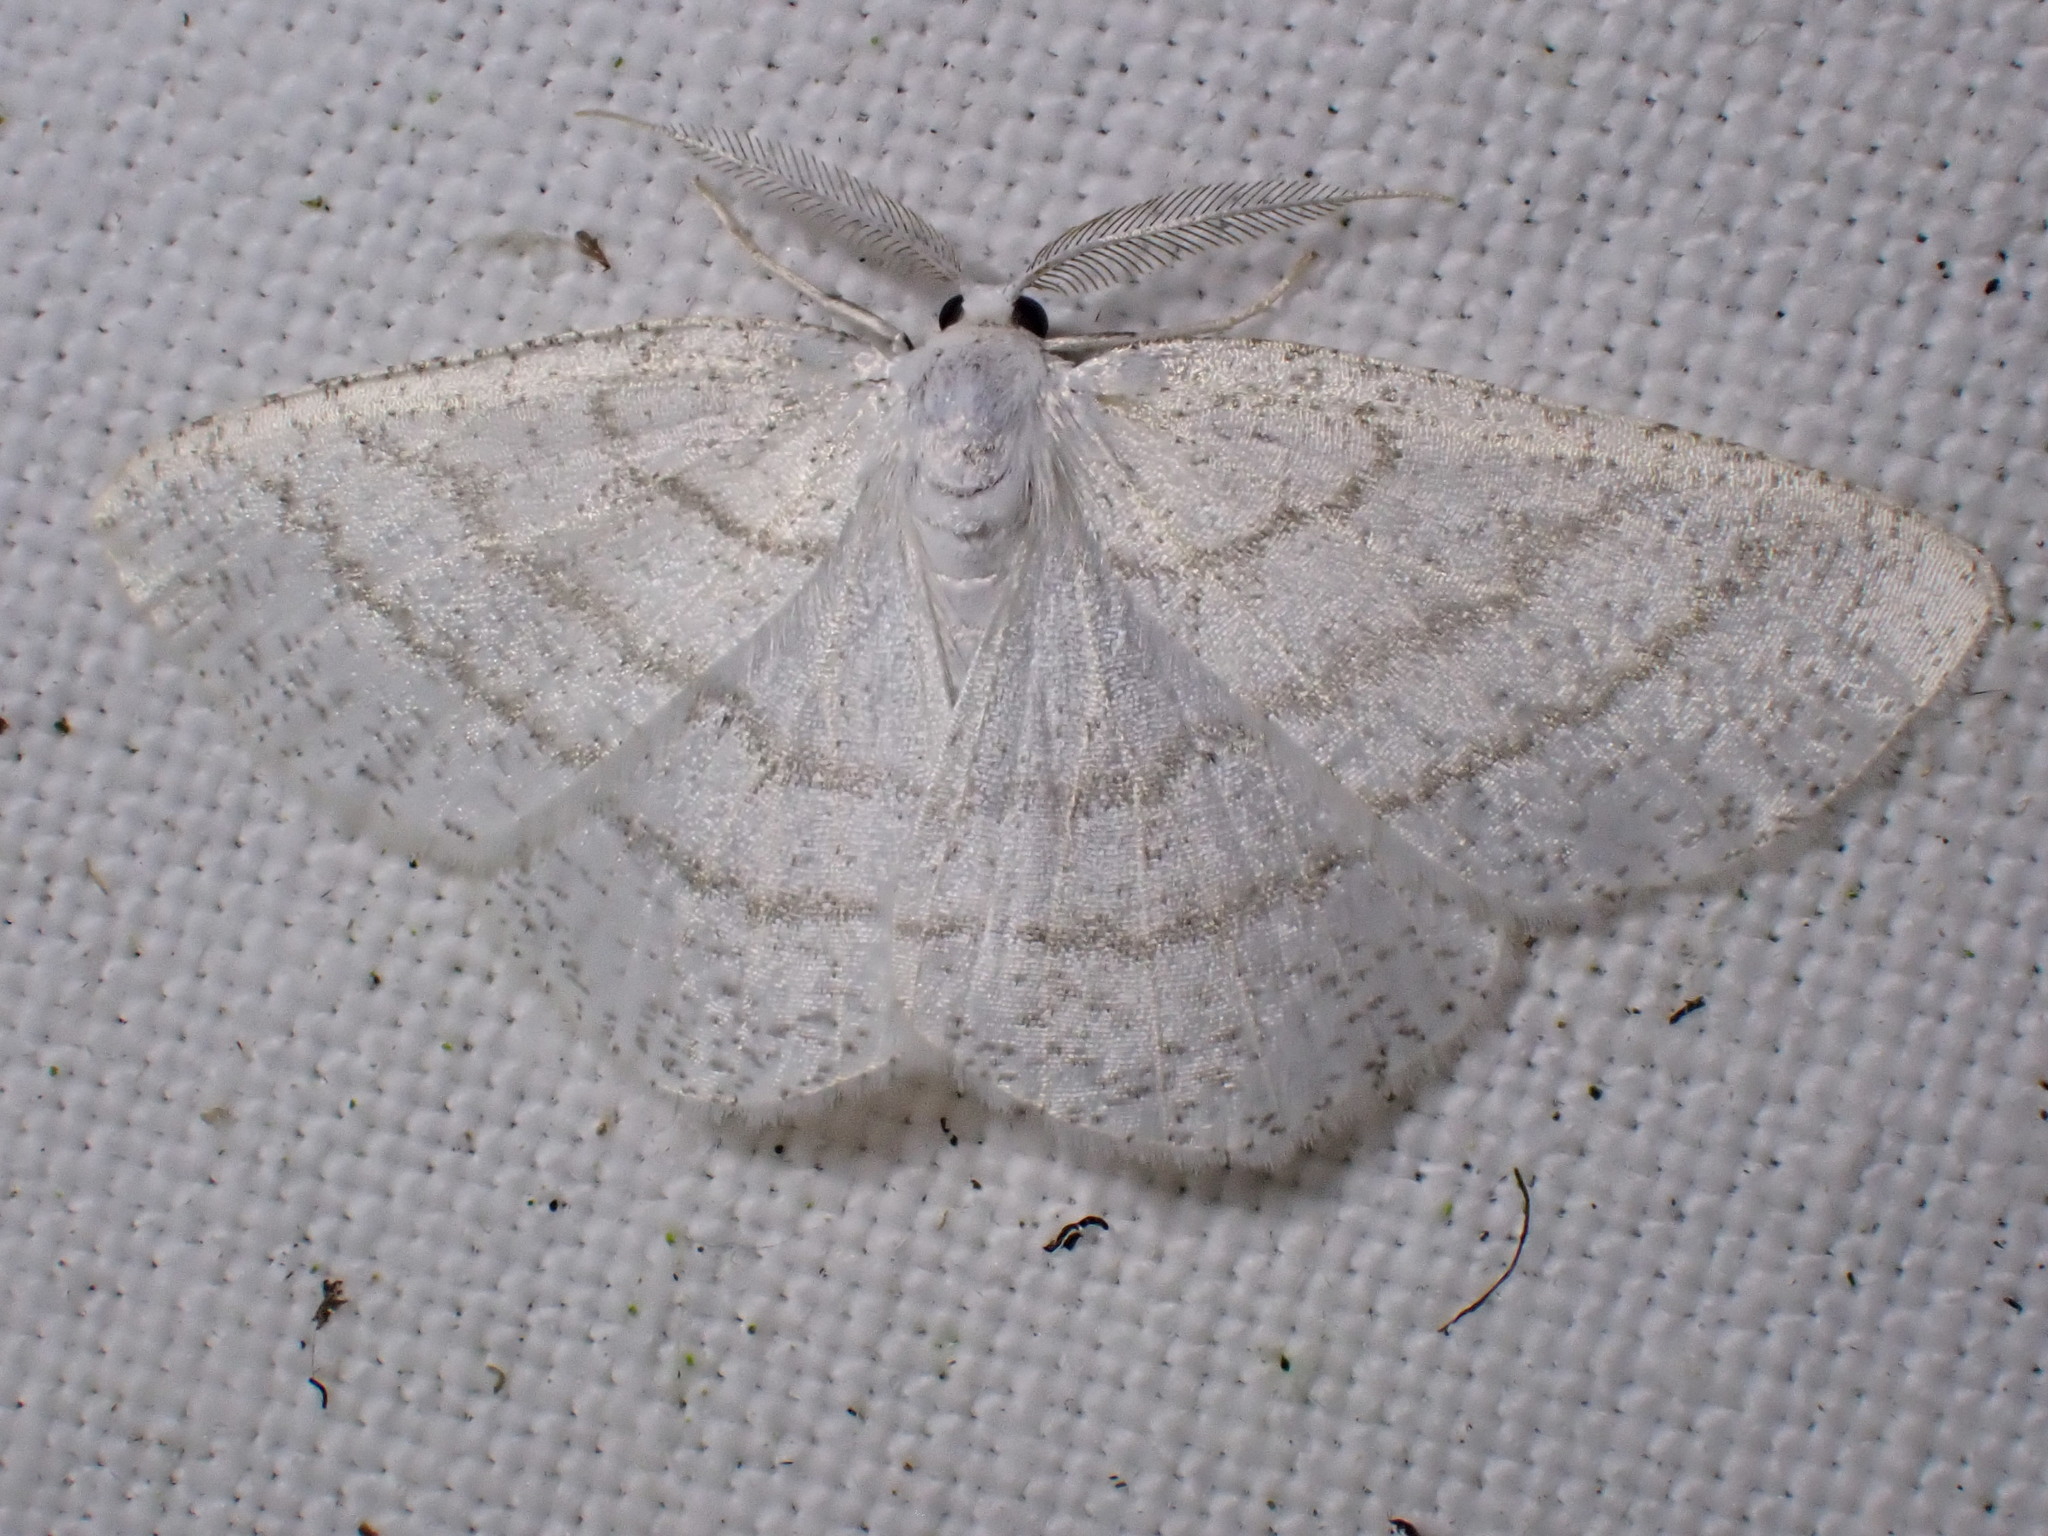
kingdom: Animalia
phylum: Arthropoda
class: Insecta
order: Lepidoptera
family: Geometridae
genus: Cabera
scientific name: Cabera pusaria
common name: Common white wave
